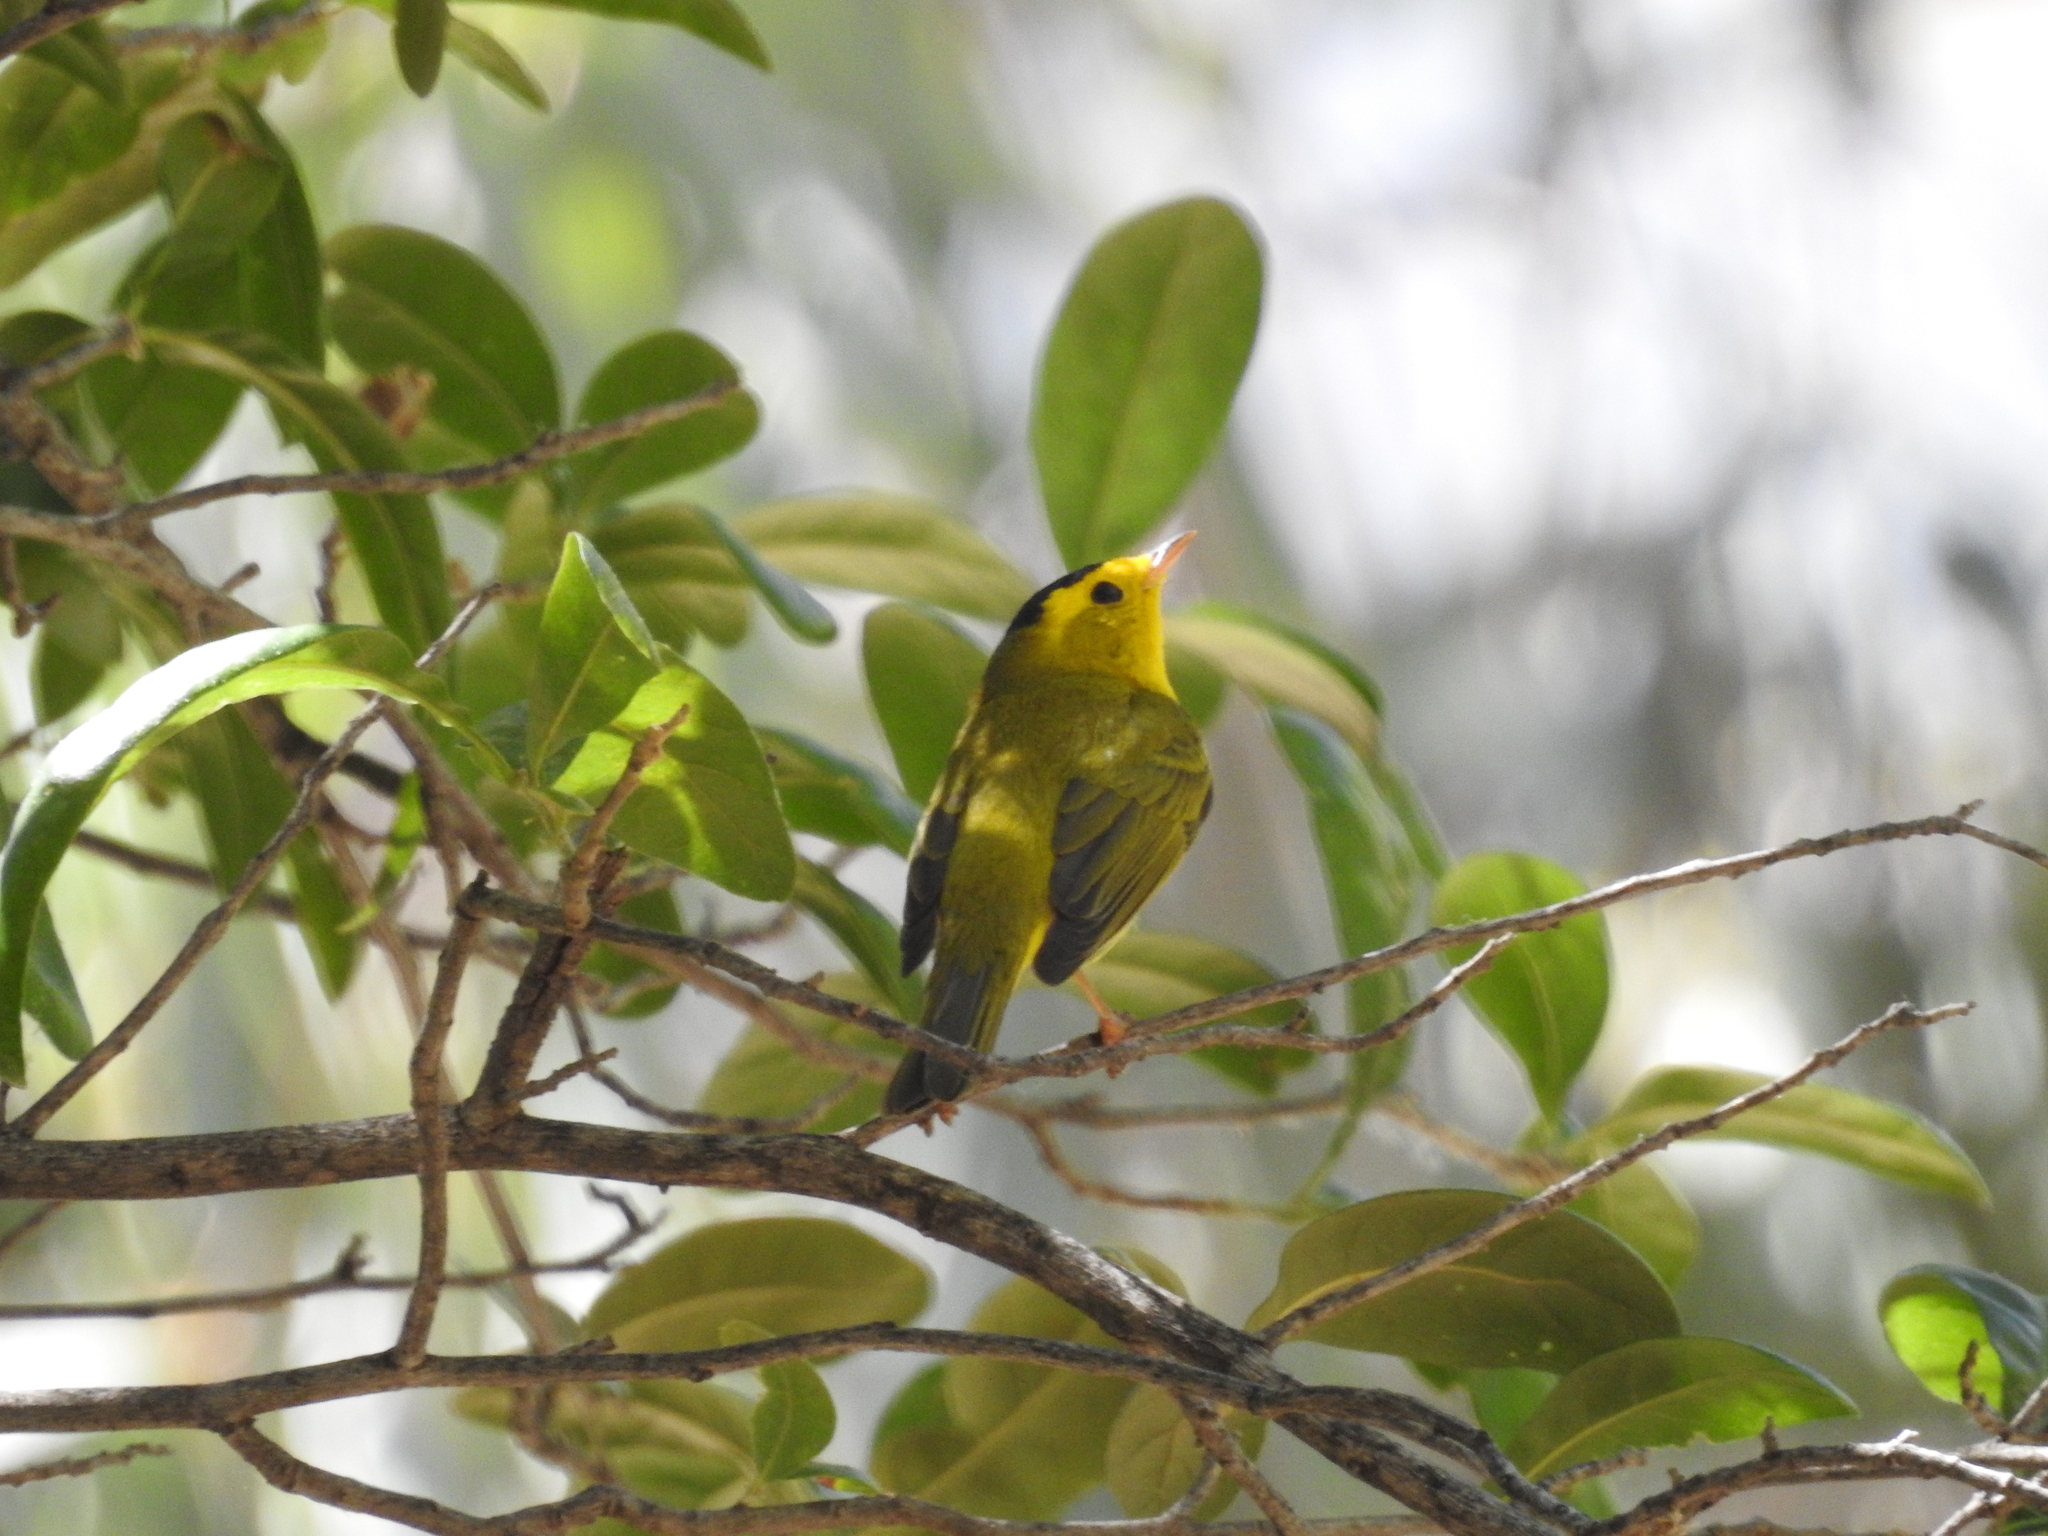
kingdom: Animalia
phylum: Chordata
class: Aves
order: Passeriformes
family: Parulidae
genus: Cardellina
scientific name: Cardellina pusilla
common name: Wilson's warbler
